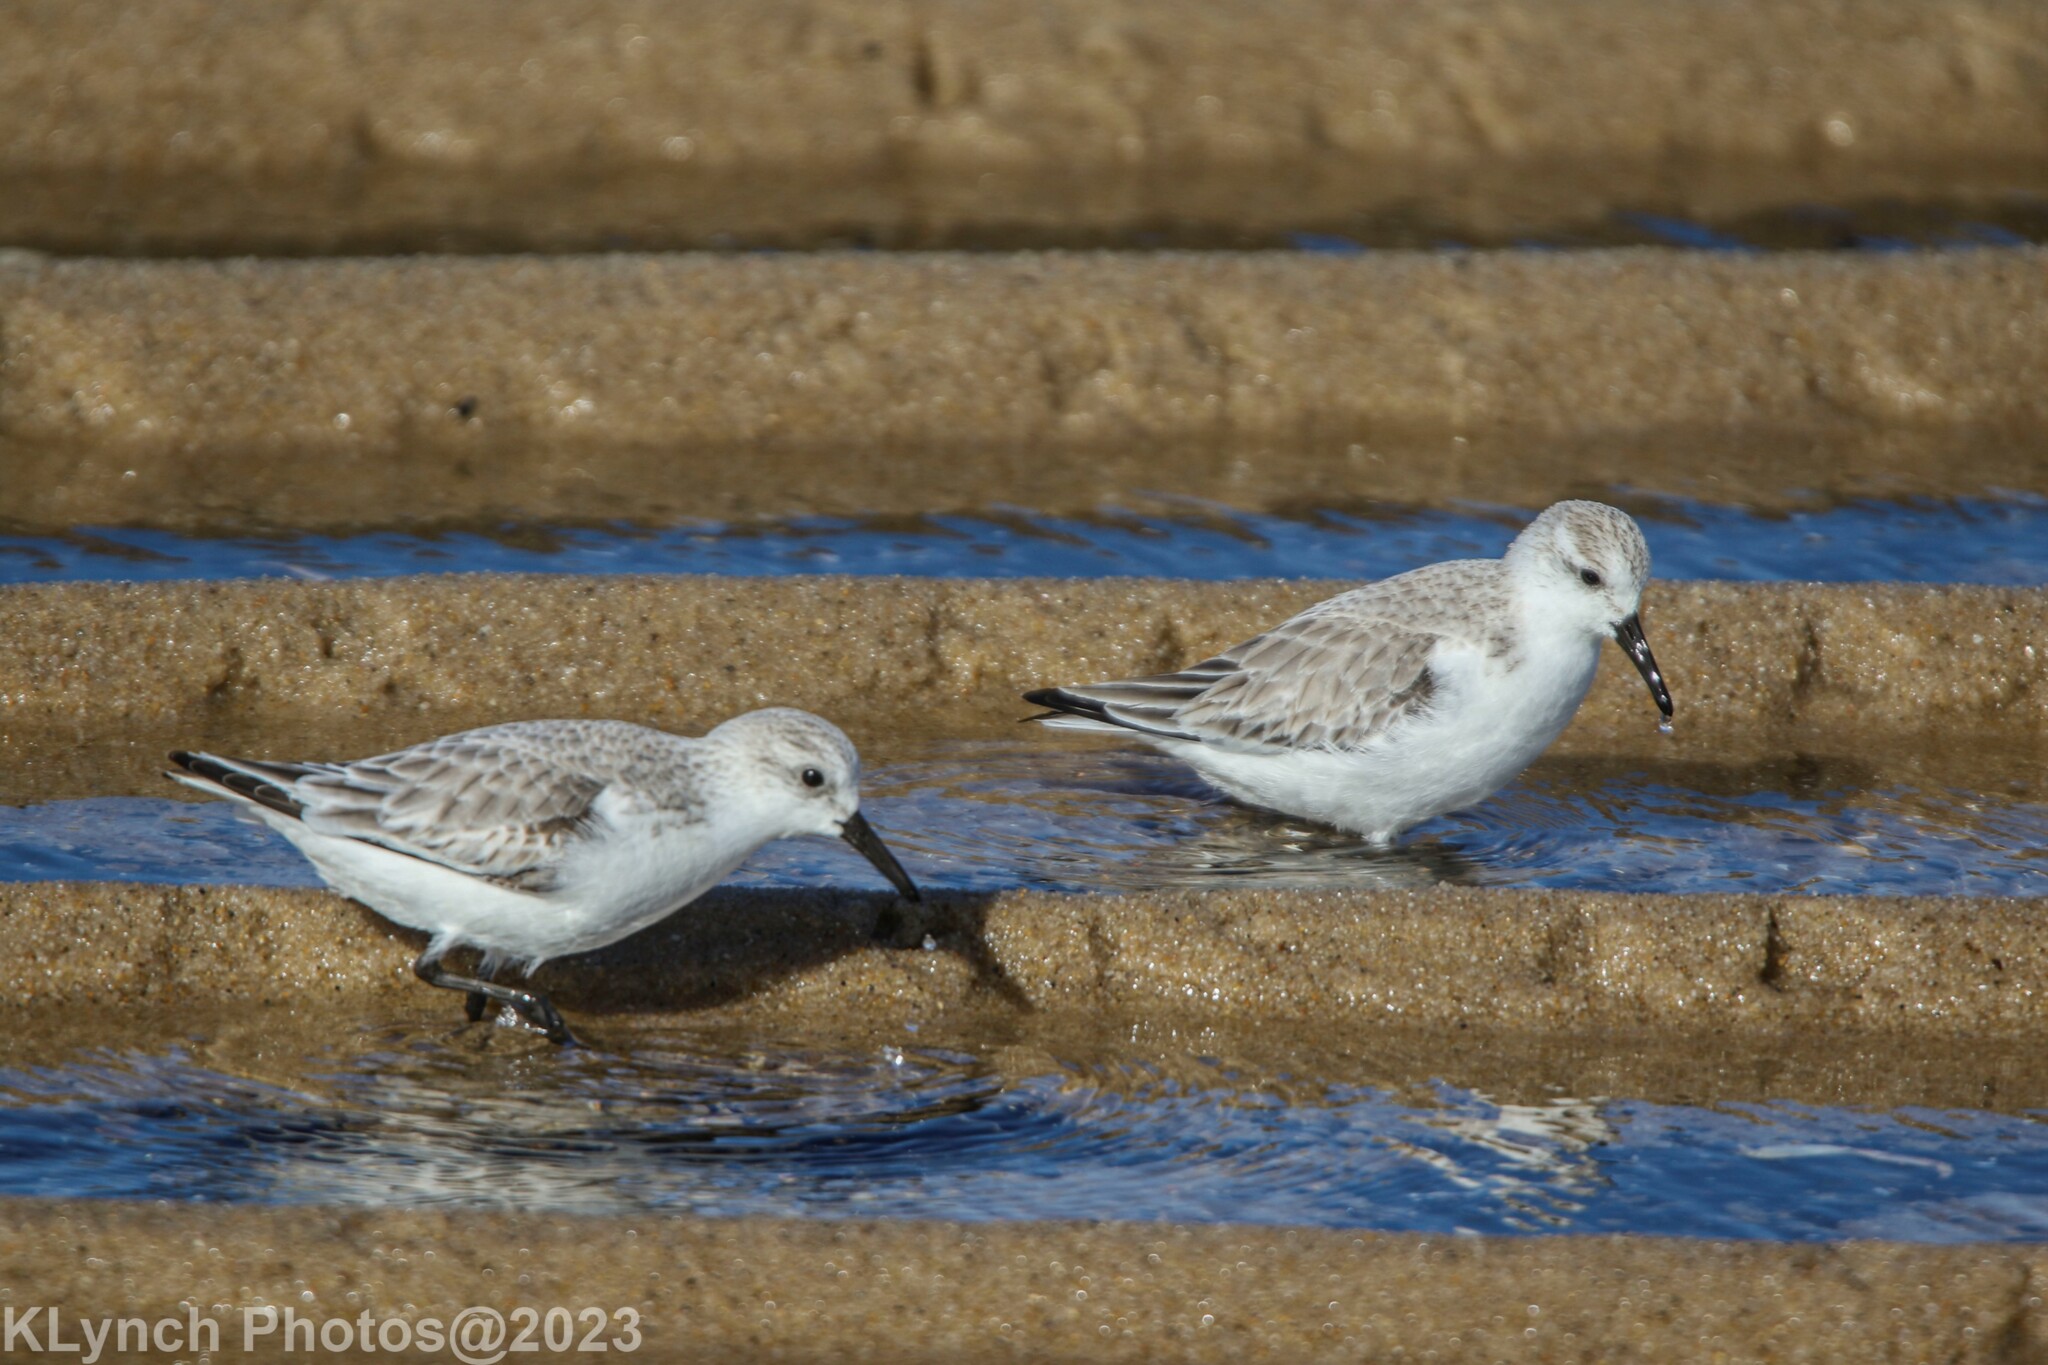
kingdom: Animalia
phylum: Chordata
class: Aves
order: Charadriiformes
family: Scolopacidae
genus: Calidris
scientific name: Calidris alba
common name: Sanderling
